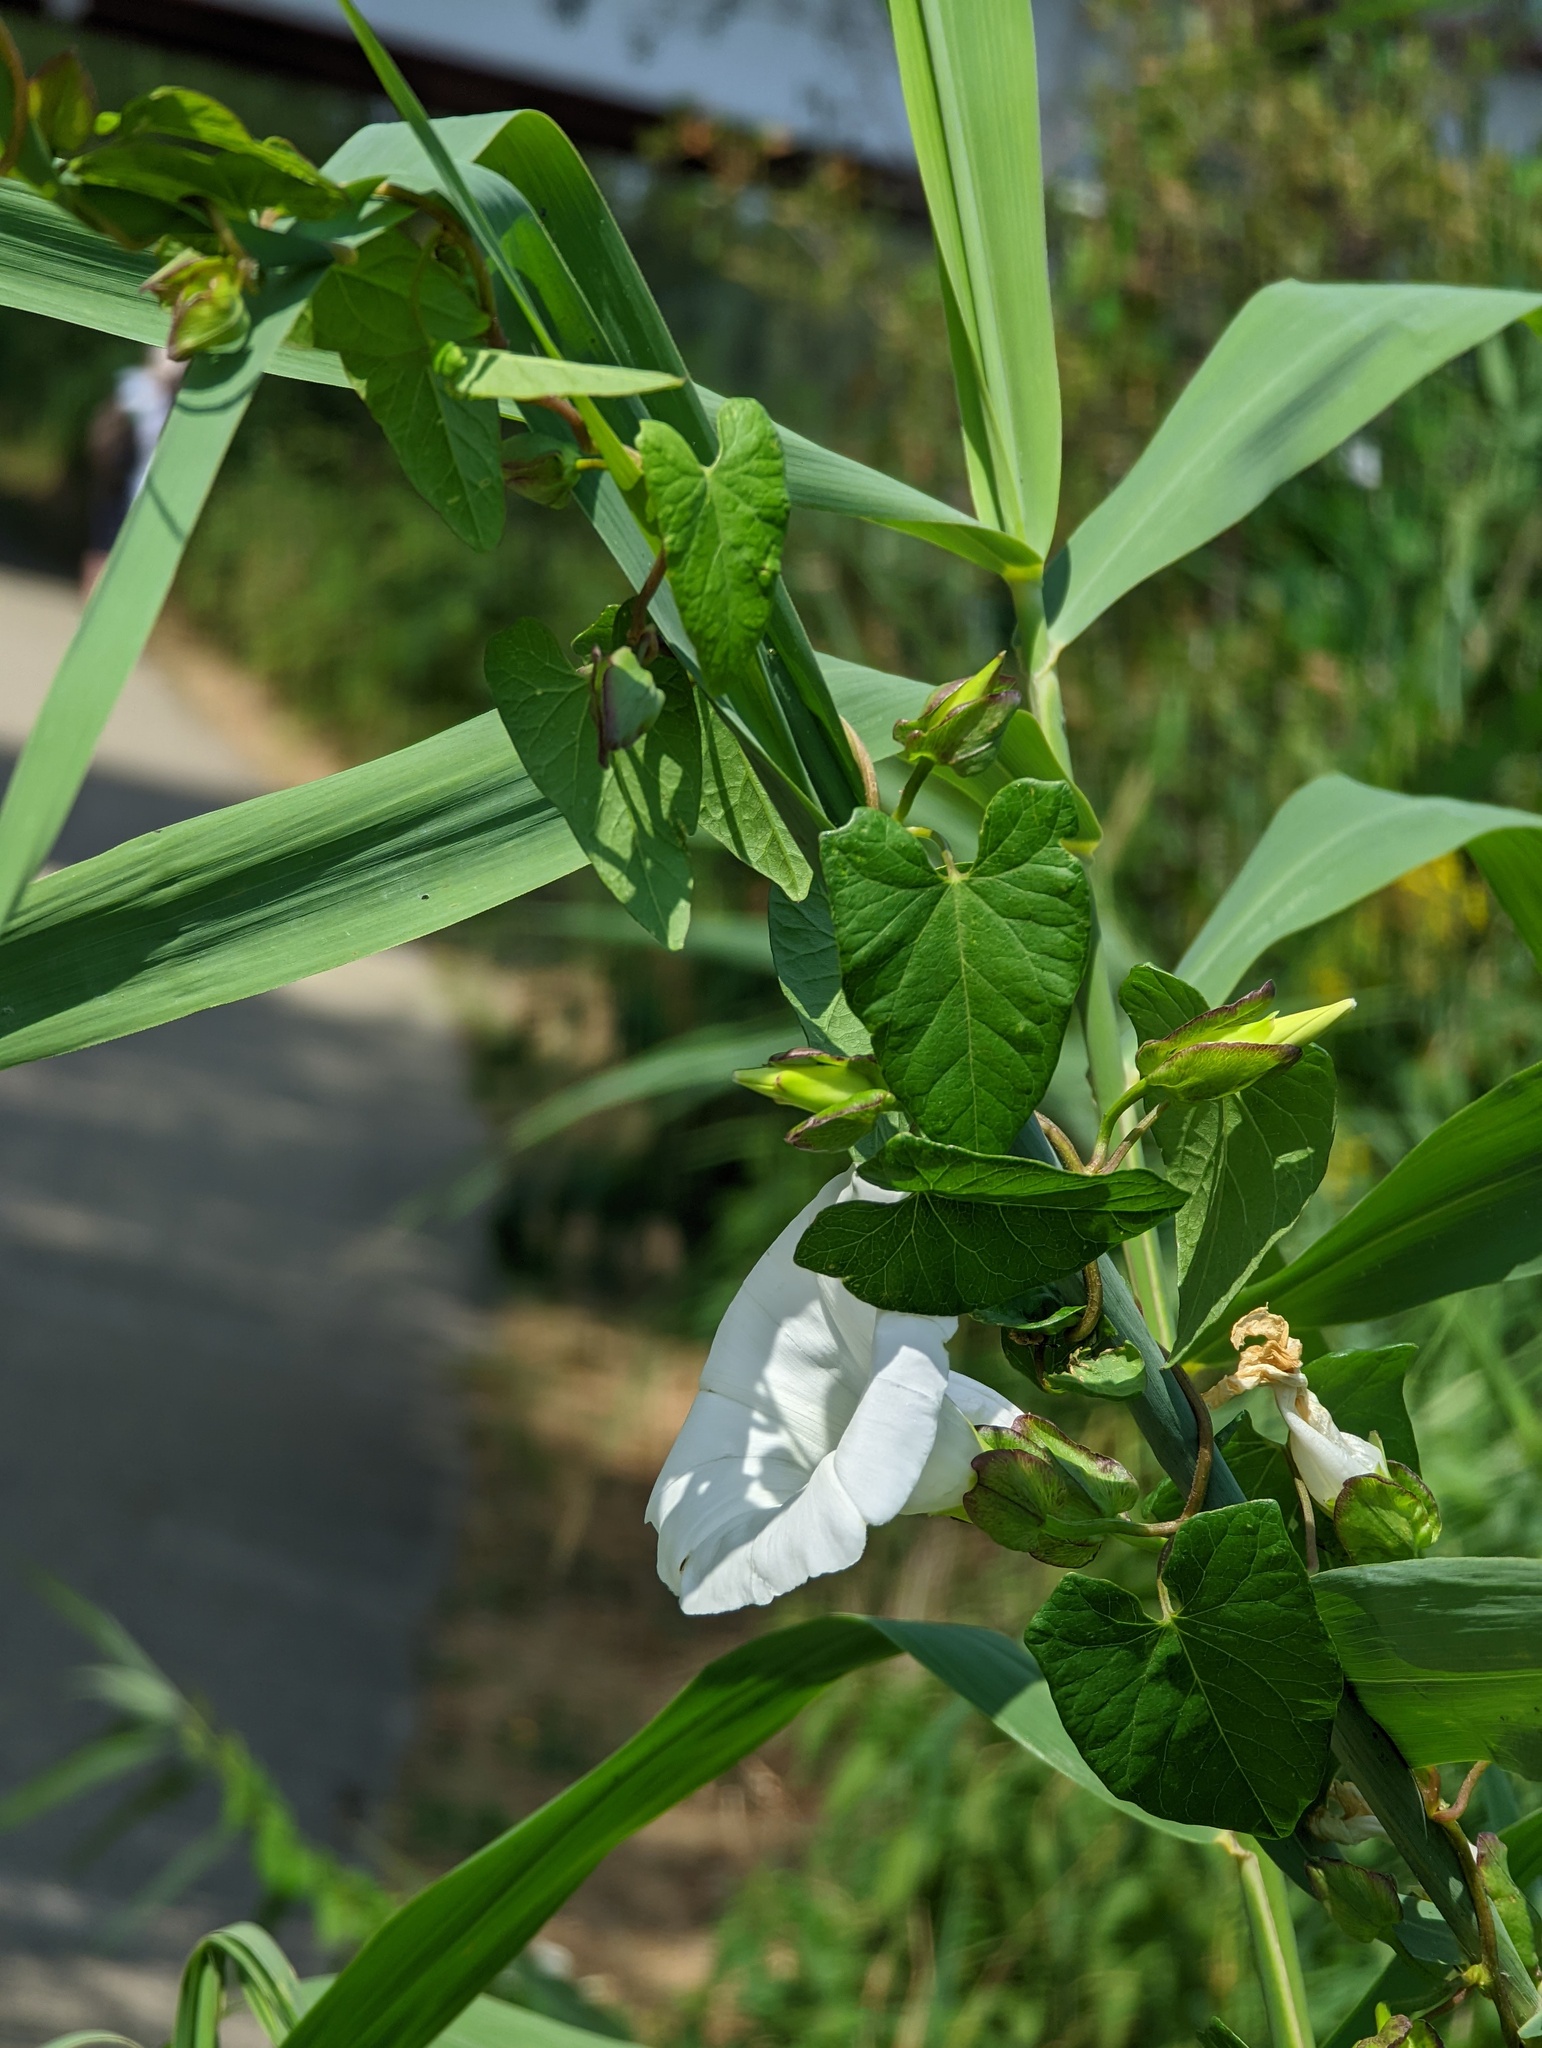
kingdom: Plantae
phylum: Tracheophyta
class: Magnoliopsida
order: Solanales
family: Convolvulaceae
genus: Calystegia
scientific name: Calystegia sepium
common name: Hedge bindweed
